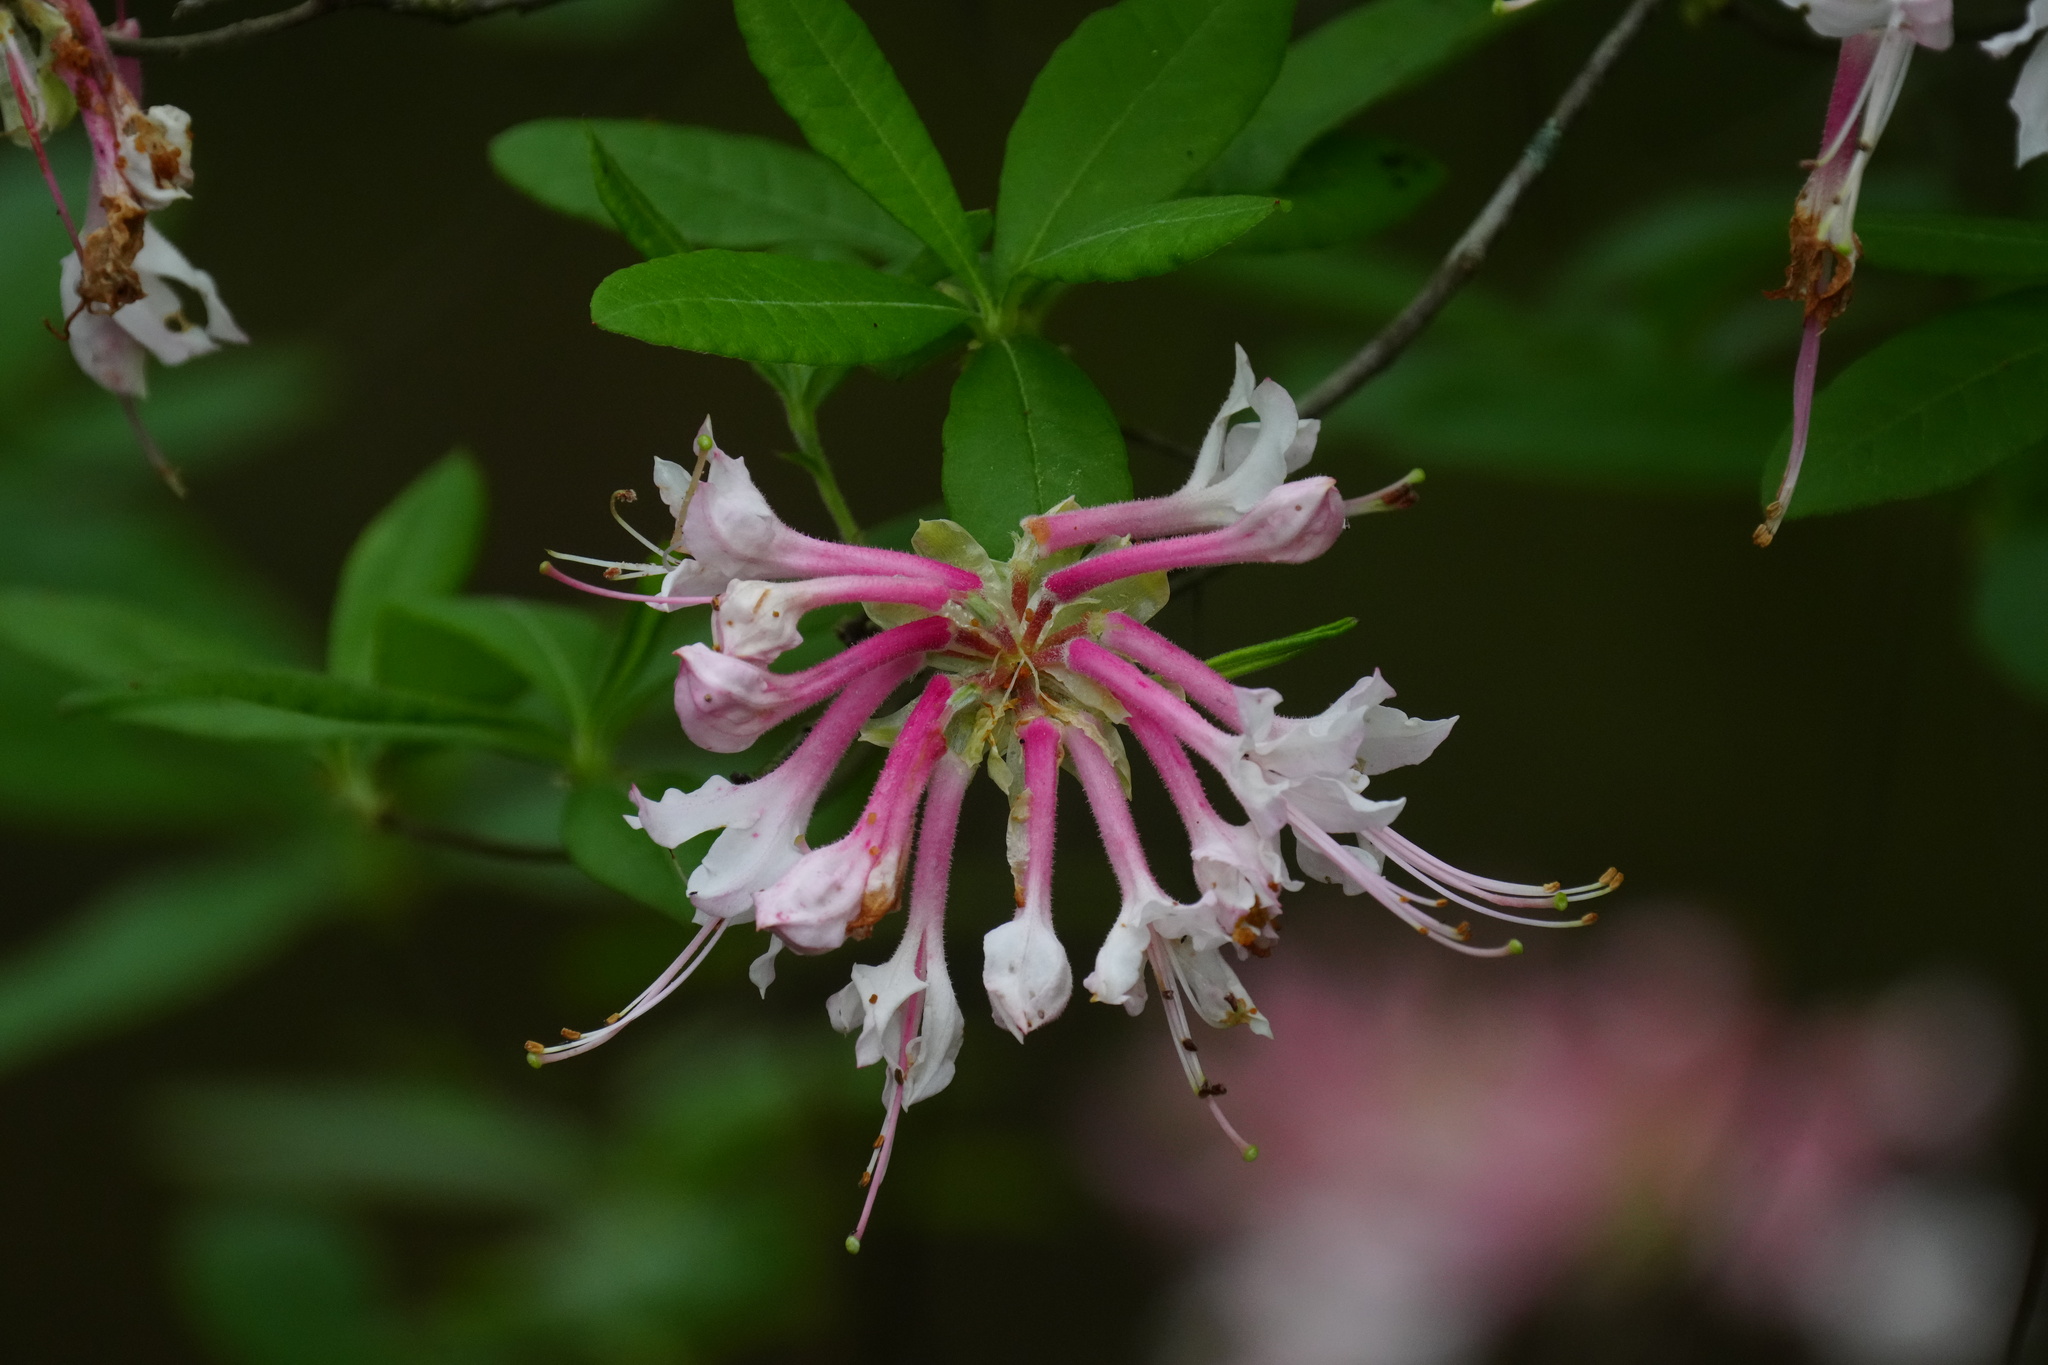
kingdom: Plantae
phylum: Tracheophyta
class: Magnoliopsida
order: Ericales
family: Ericaceae
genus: Rhododendron
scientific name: Rhododendron canescens
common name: Mountain azalea
